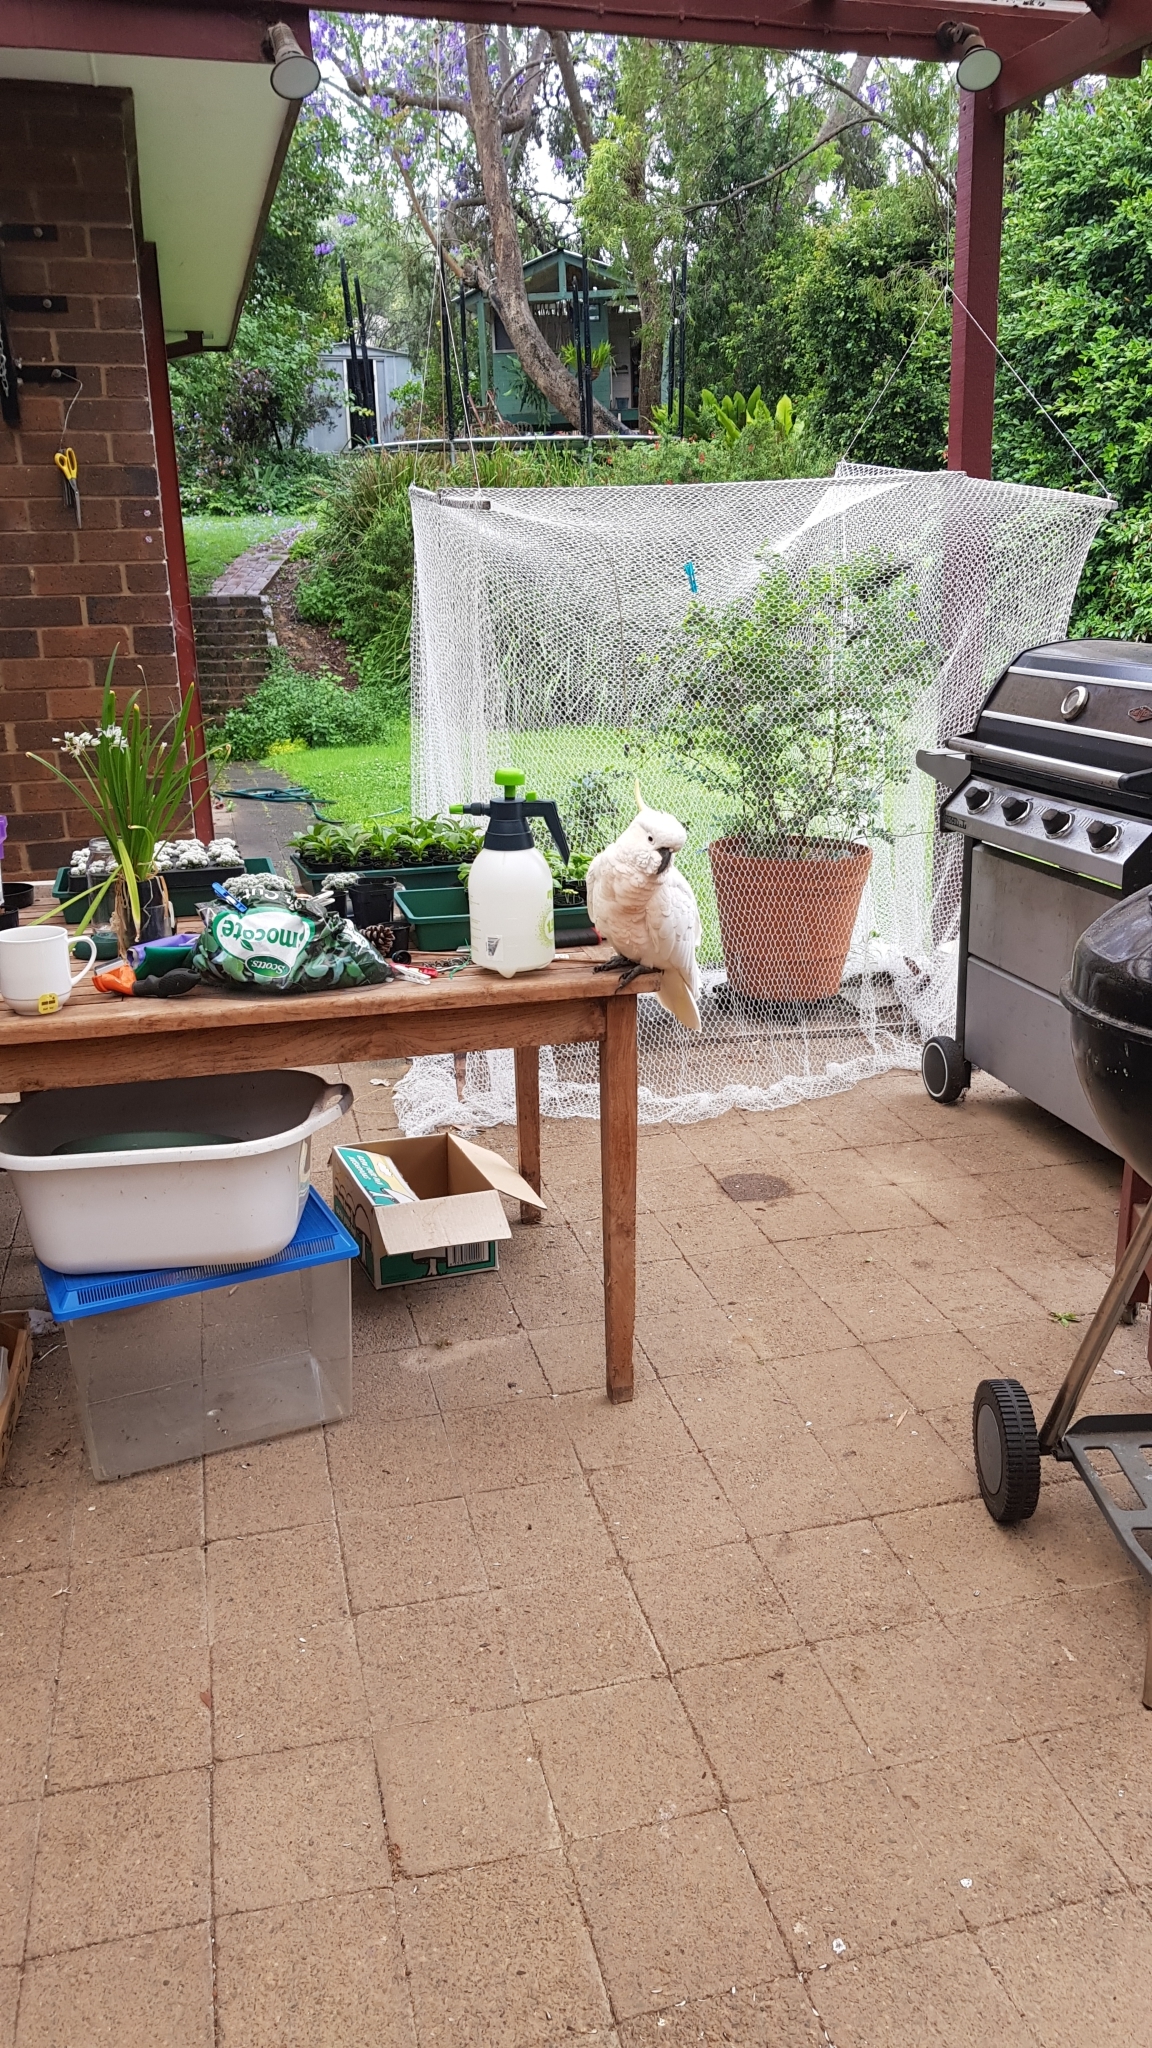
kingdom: Animalia
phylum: Chordata
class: Aves
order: Psittaciformes
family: Psittacidae
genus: Cacatua
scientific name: Cacatua galerita
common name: Sulphur-crested cockatoo
